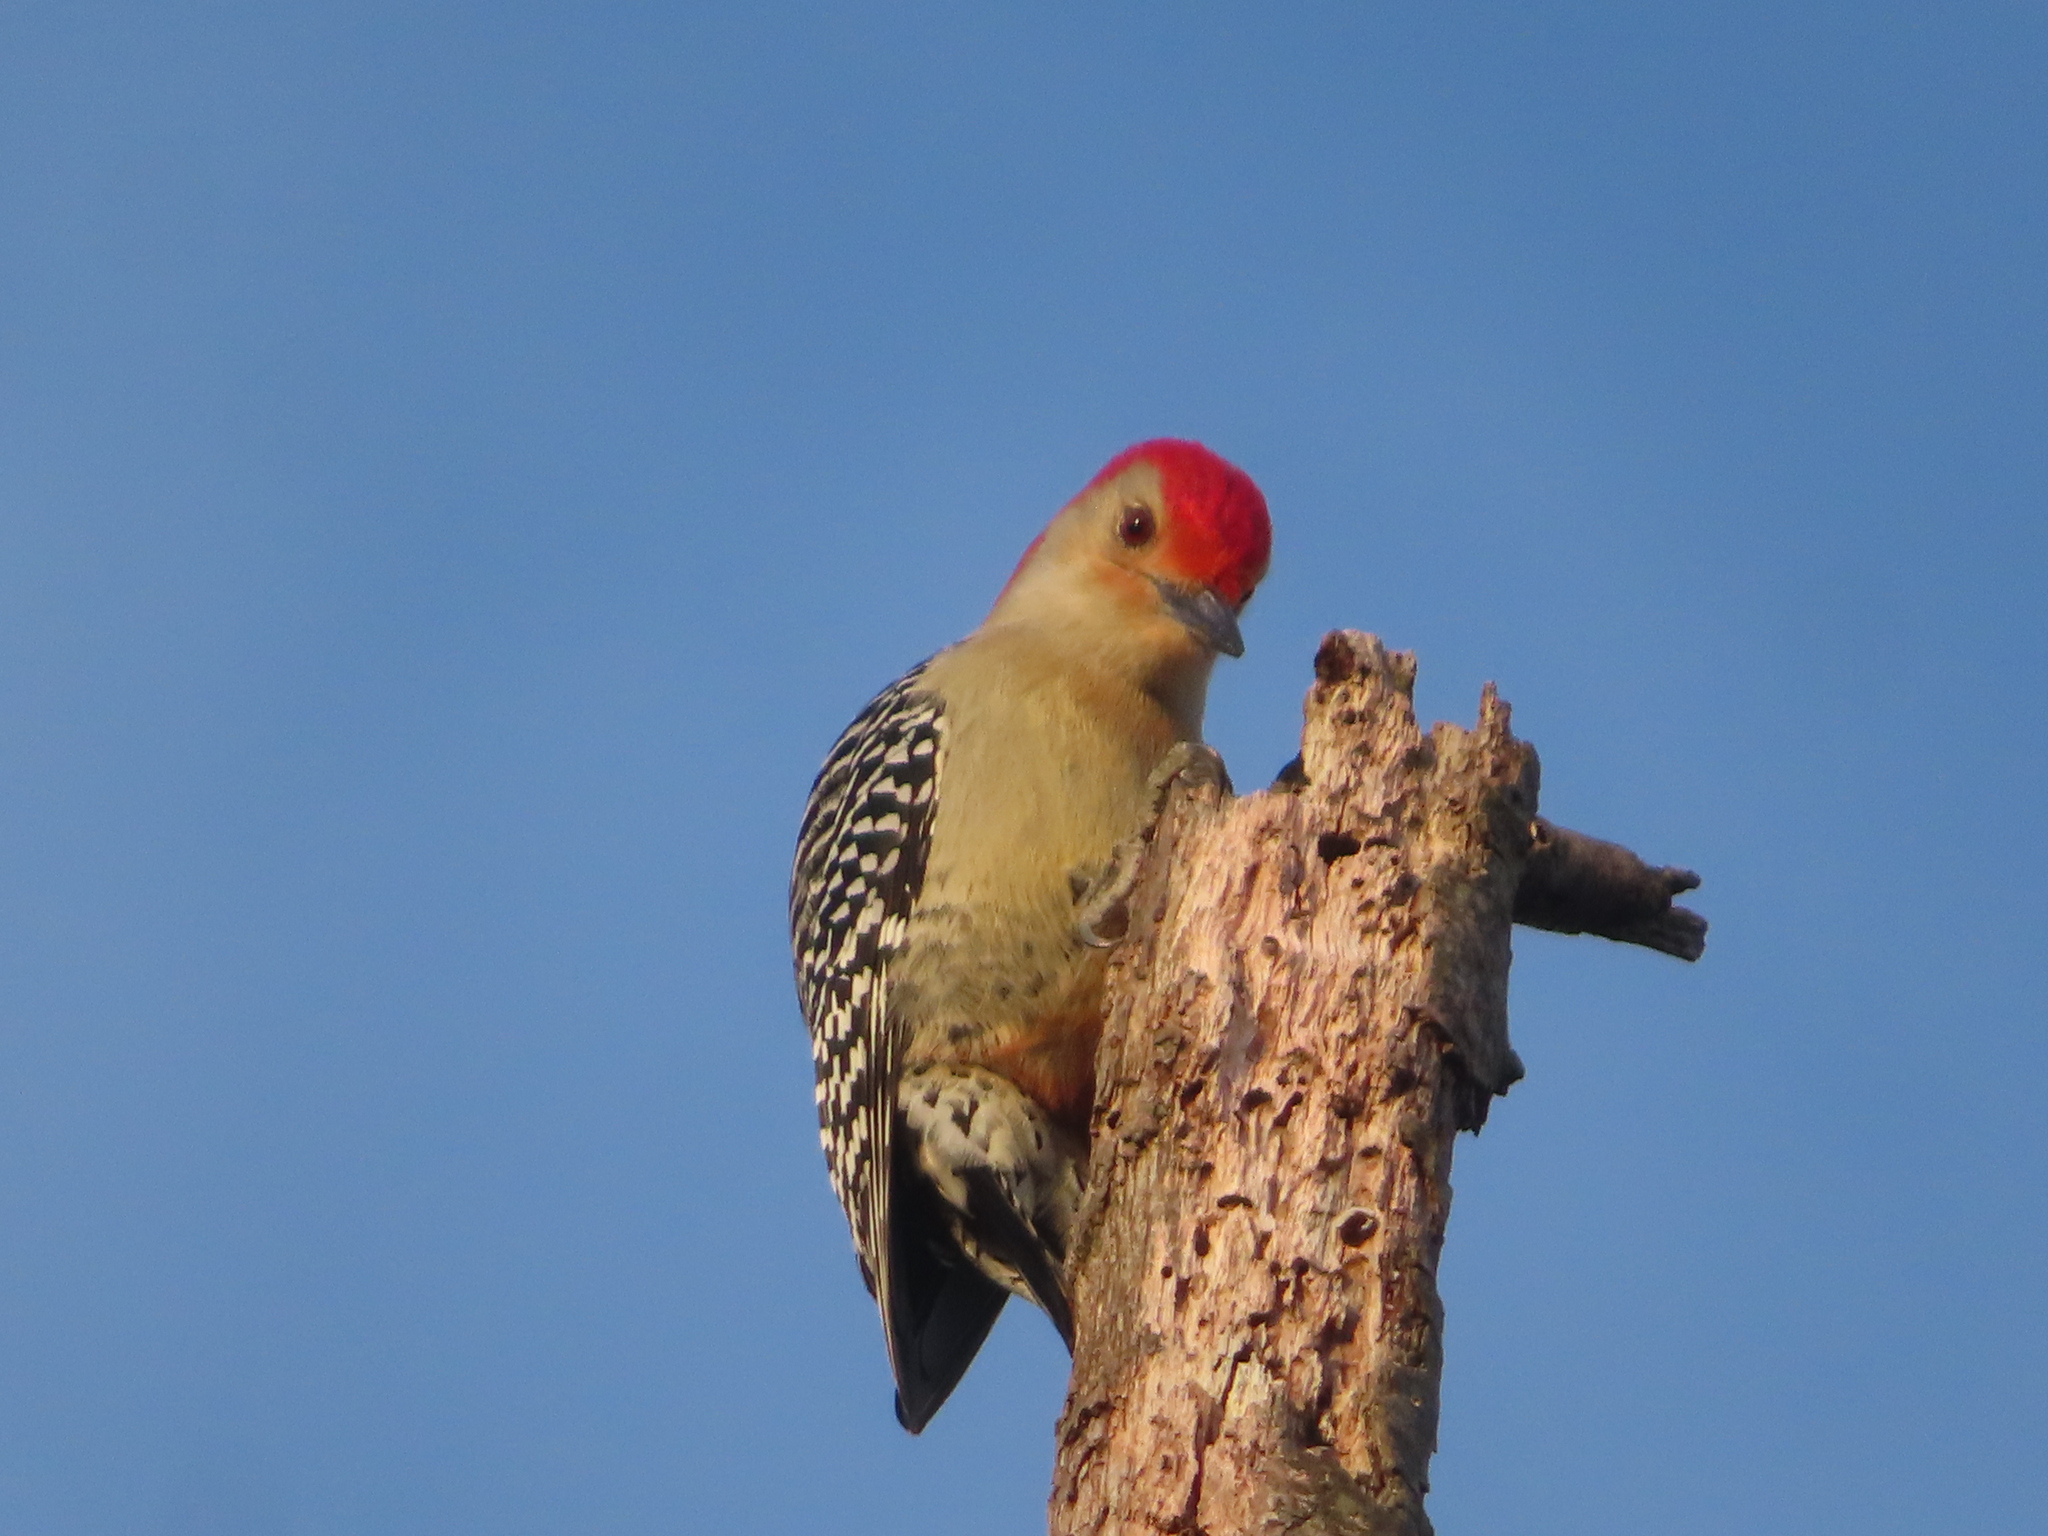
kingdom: Animalia
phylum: Chordata
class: Aves
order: Piciformes
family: Picidae
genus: Melanerpes
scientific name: Melanerpes carolinus
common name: Red-bellied woodpecker
